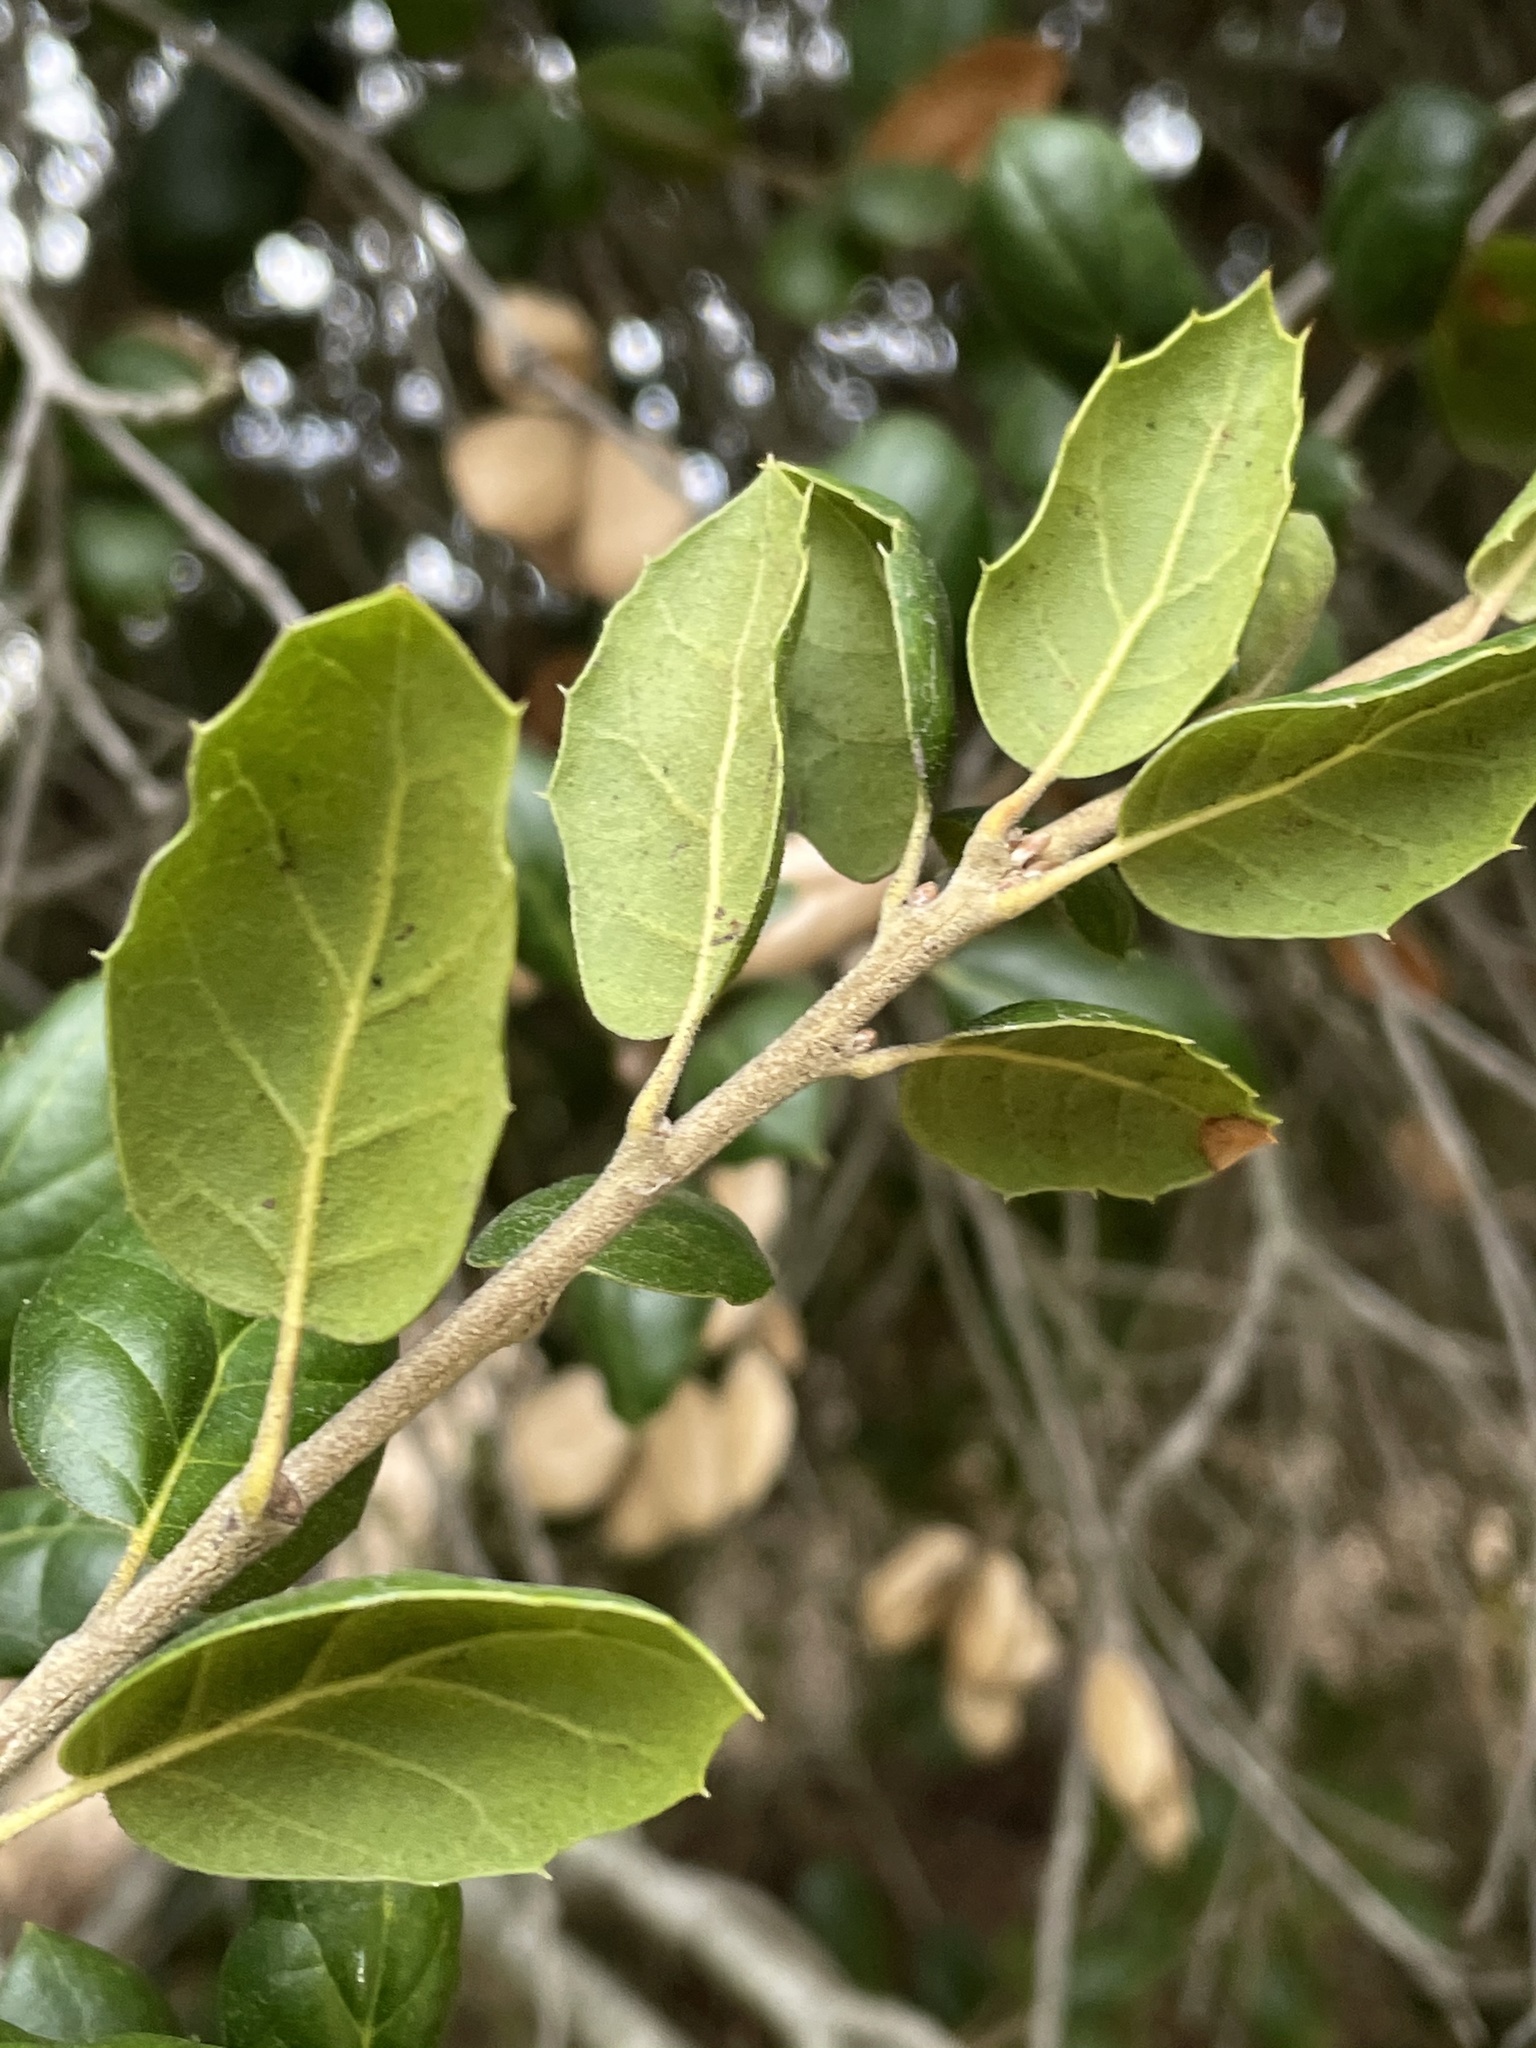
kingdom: Plantae
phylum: Tracheophyta
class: Magnoliopsida
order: Fagales
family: Fagaceae
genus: Quercus
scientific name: Quercus agrifolia
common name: California live oak
